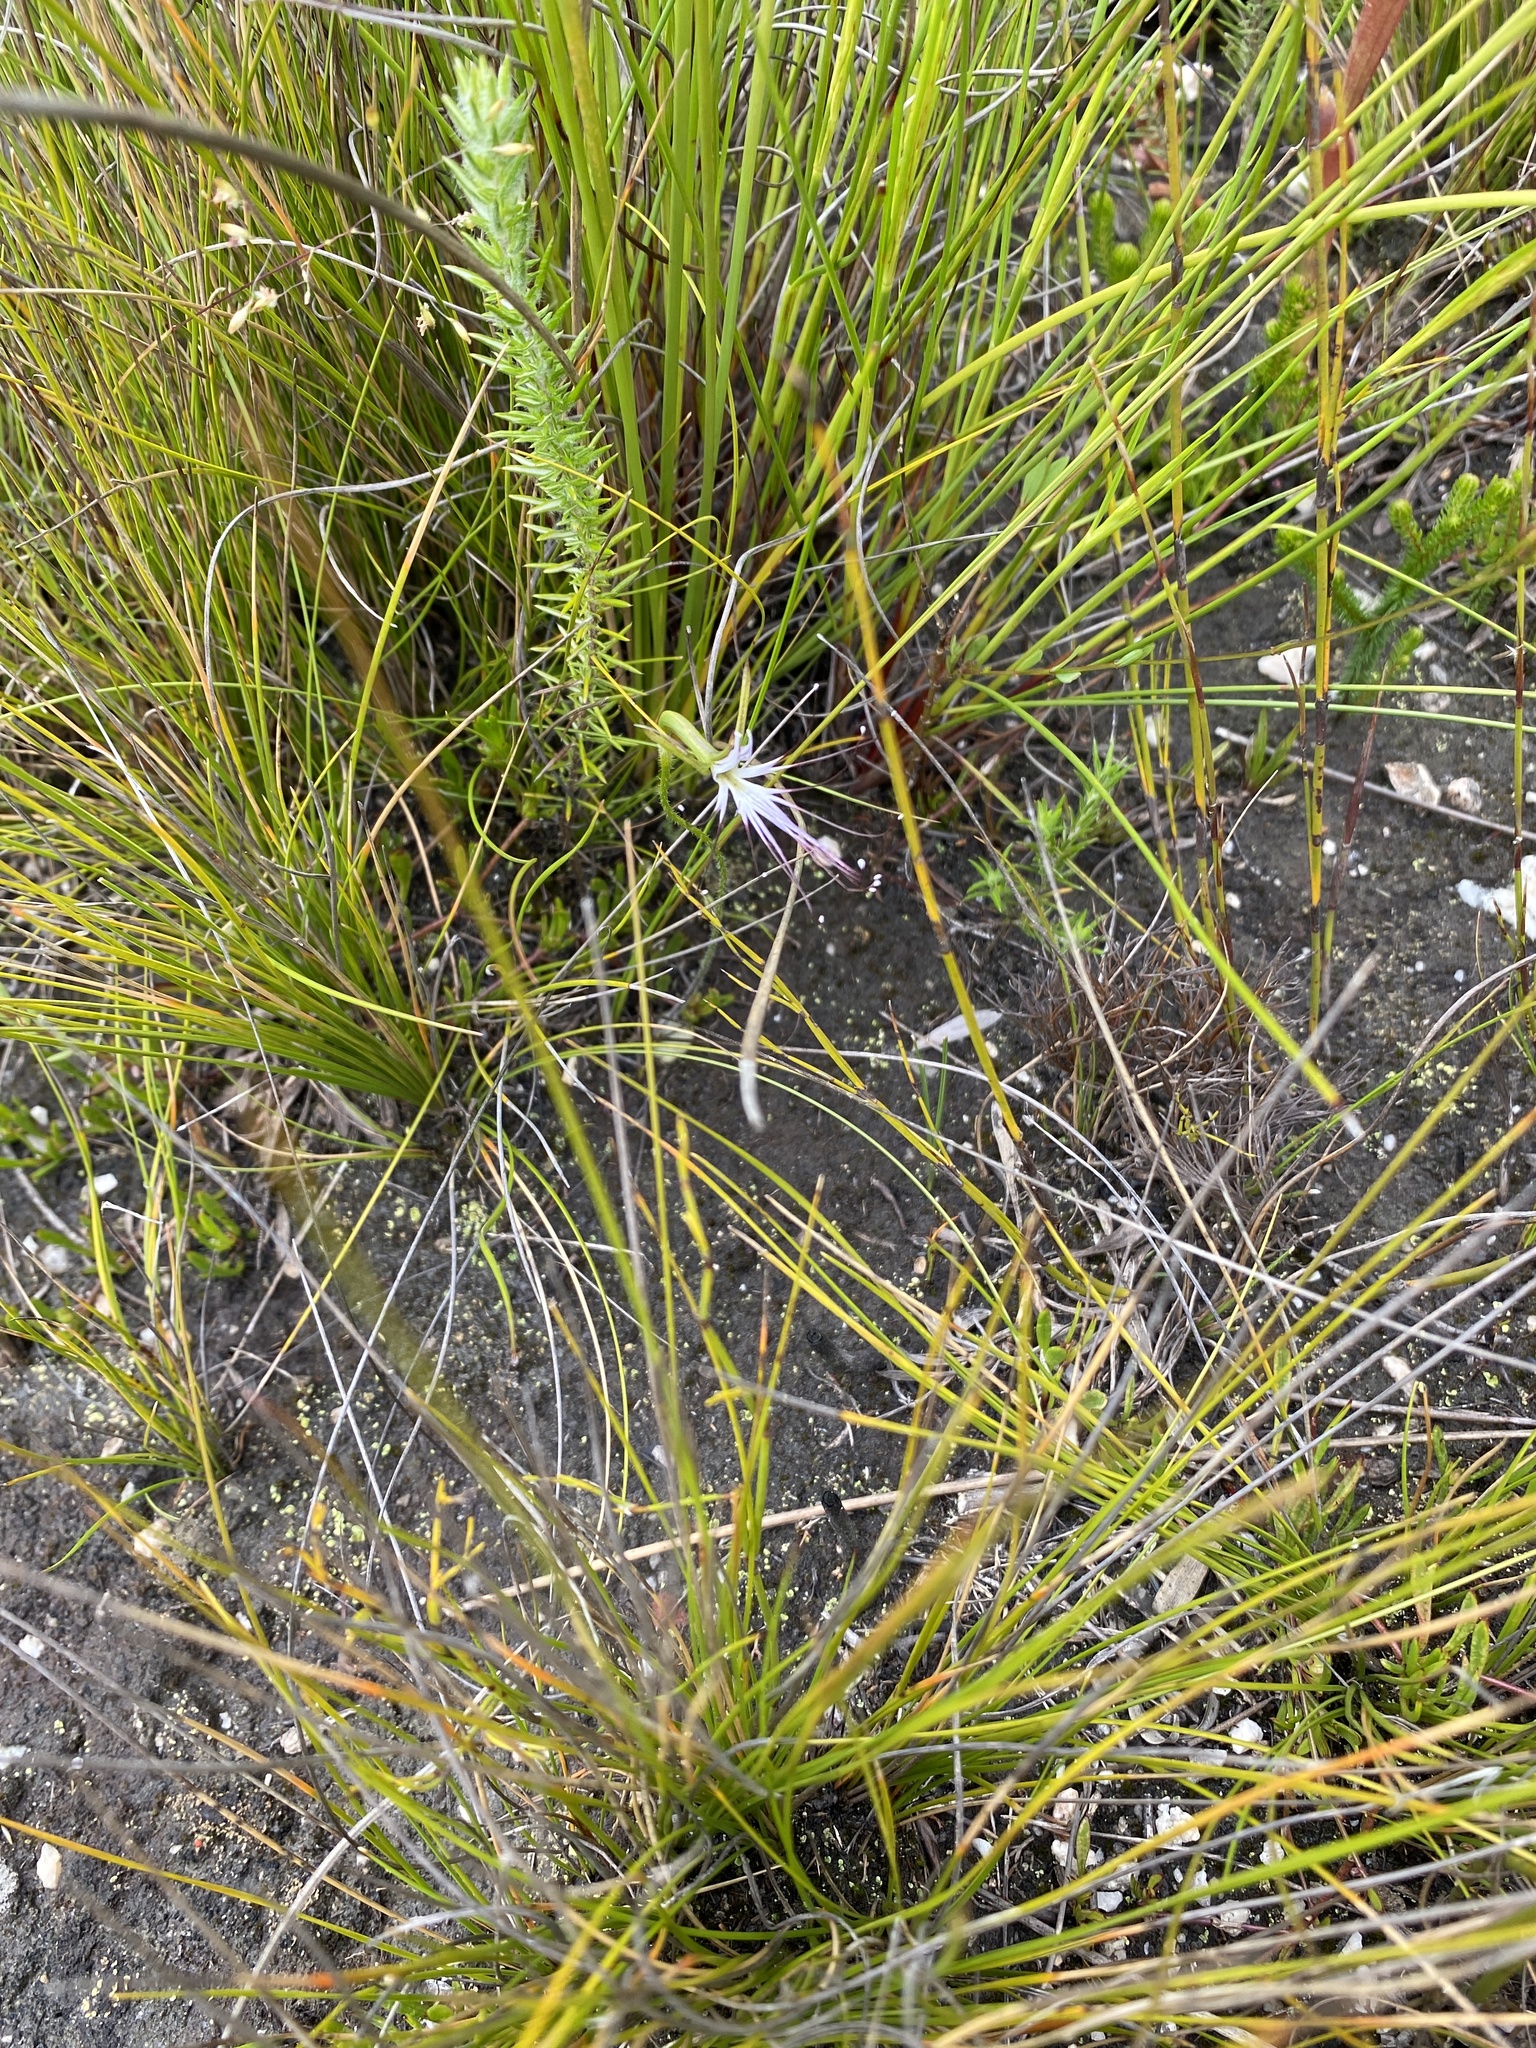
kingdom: Plantae
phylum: Tracheophyta
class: Liliopsida
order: Asparagales
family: Orchidaceae
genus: Holothrix
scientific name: Holothrix etheliae
